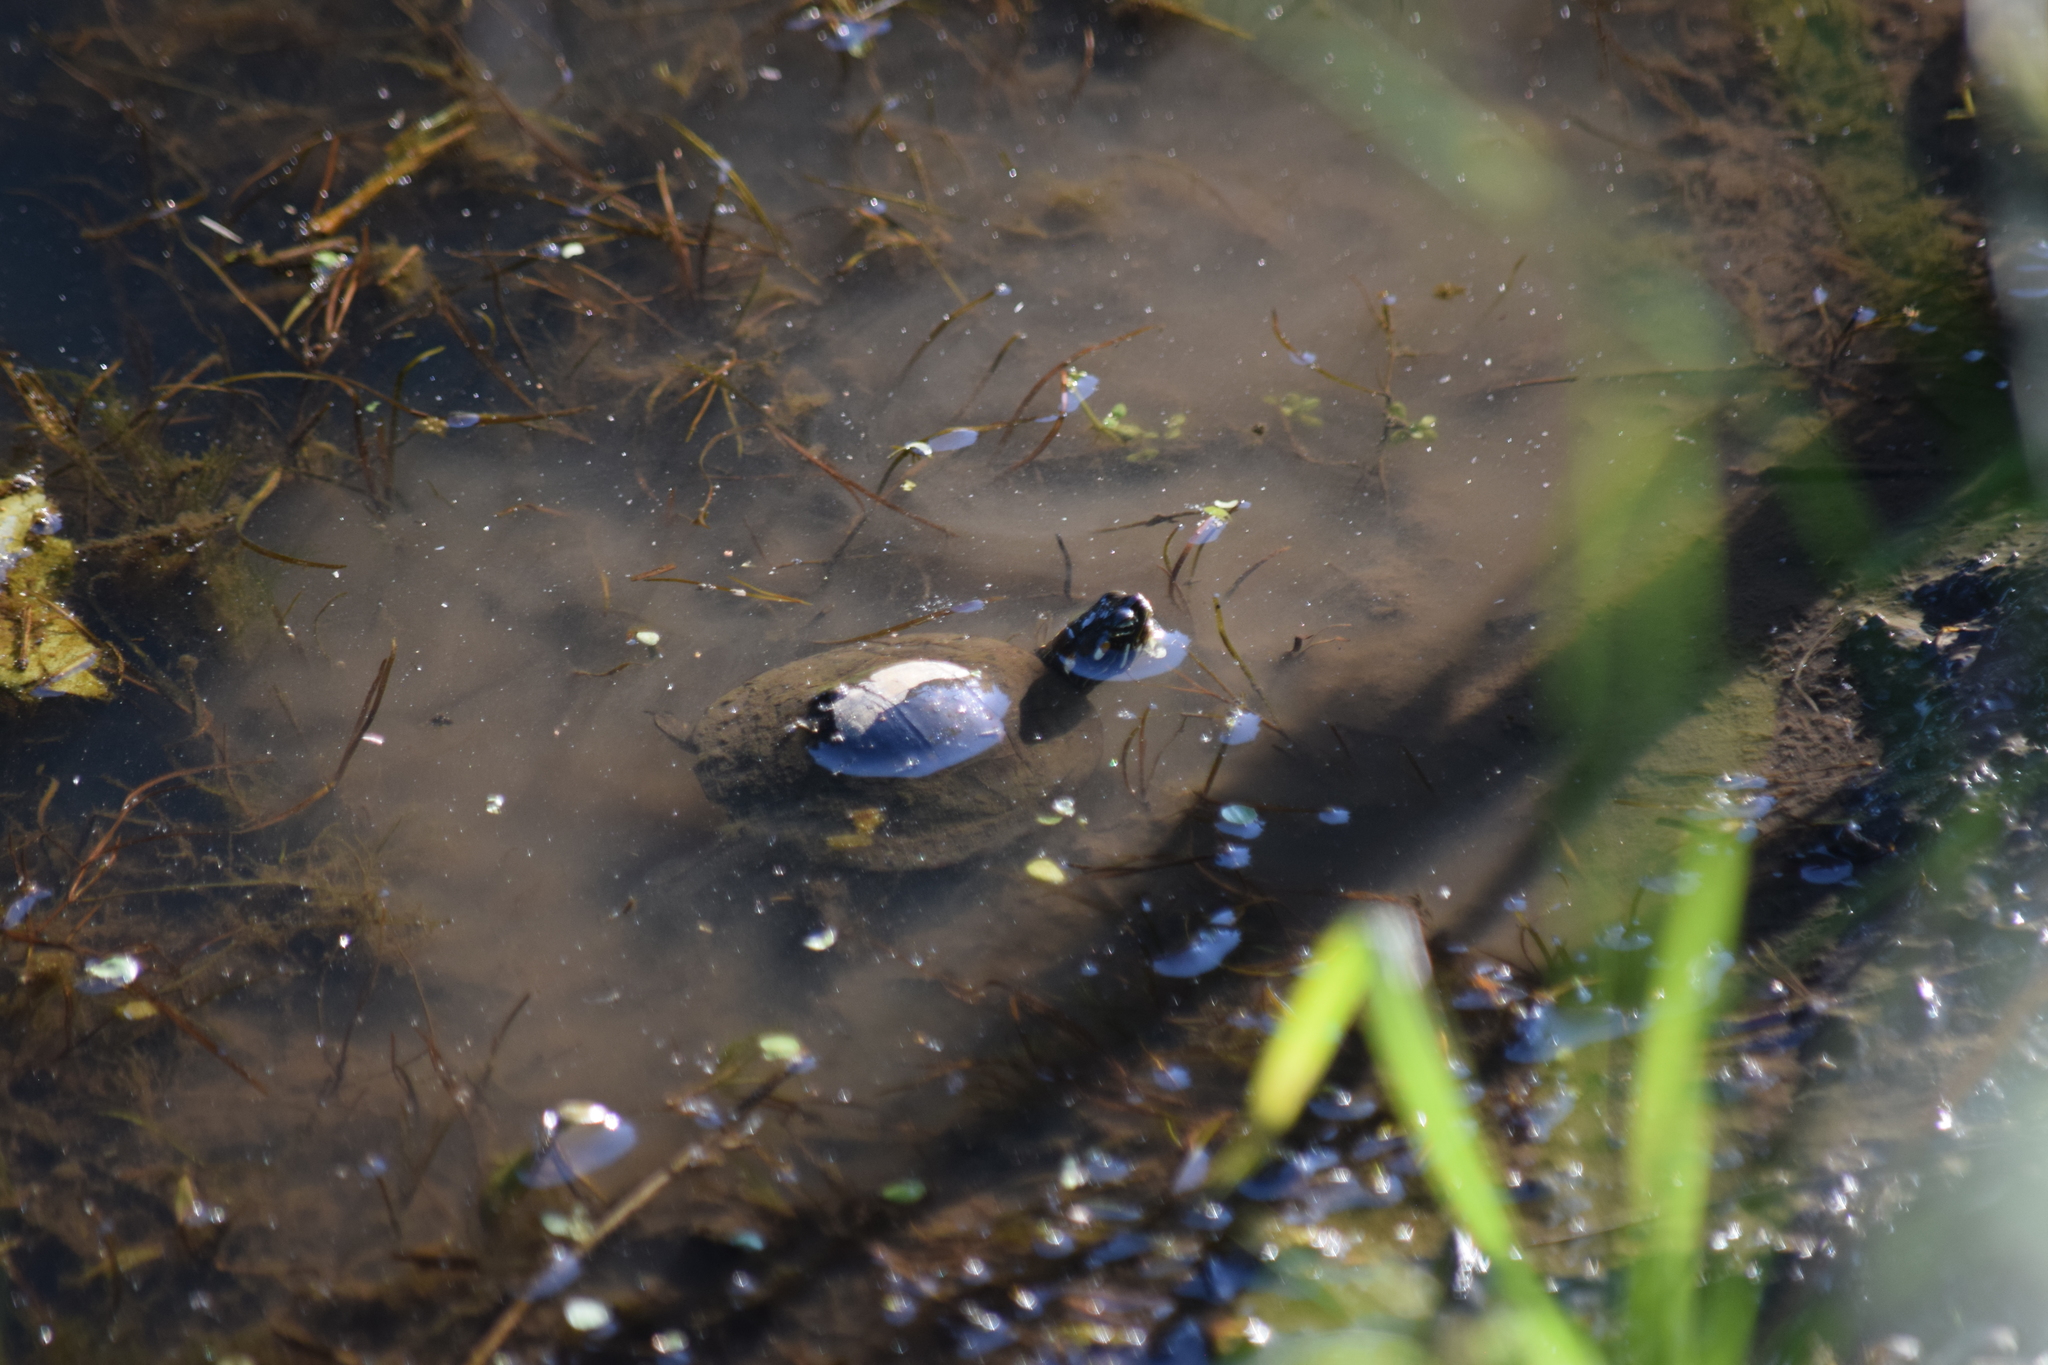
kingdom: Animalia
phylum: Chordata
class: Testudines
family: Emydidae
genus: Chrysemys
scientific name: Chrysemys picta
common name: Painted turtle
